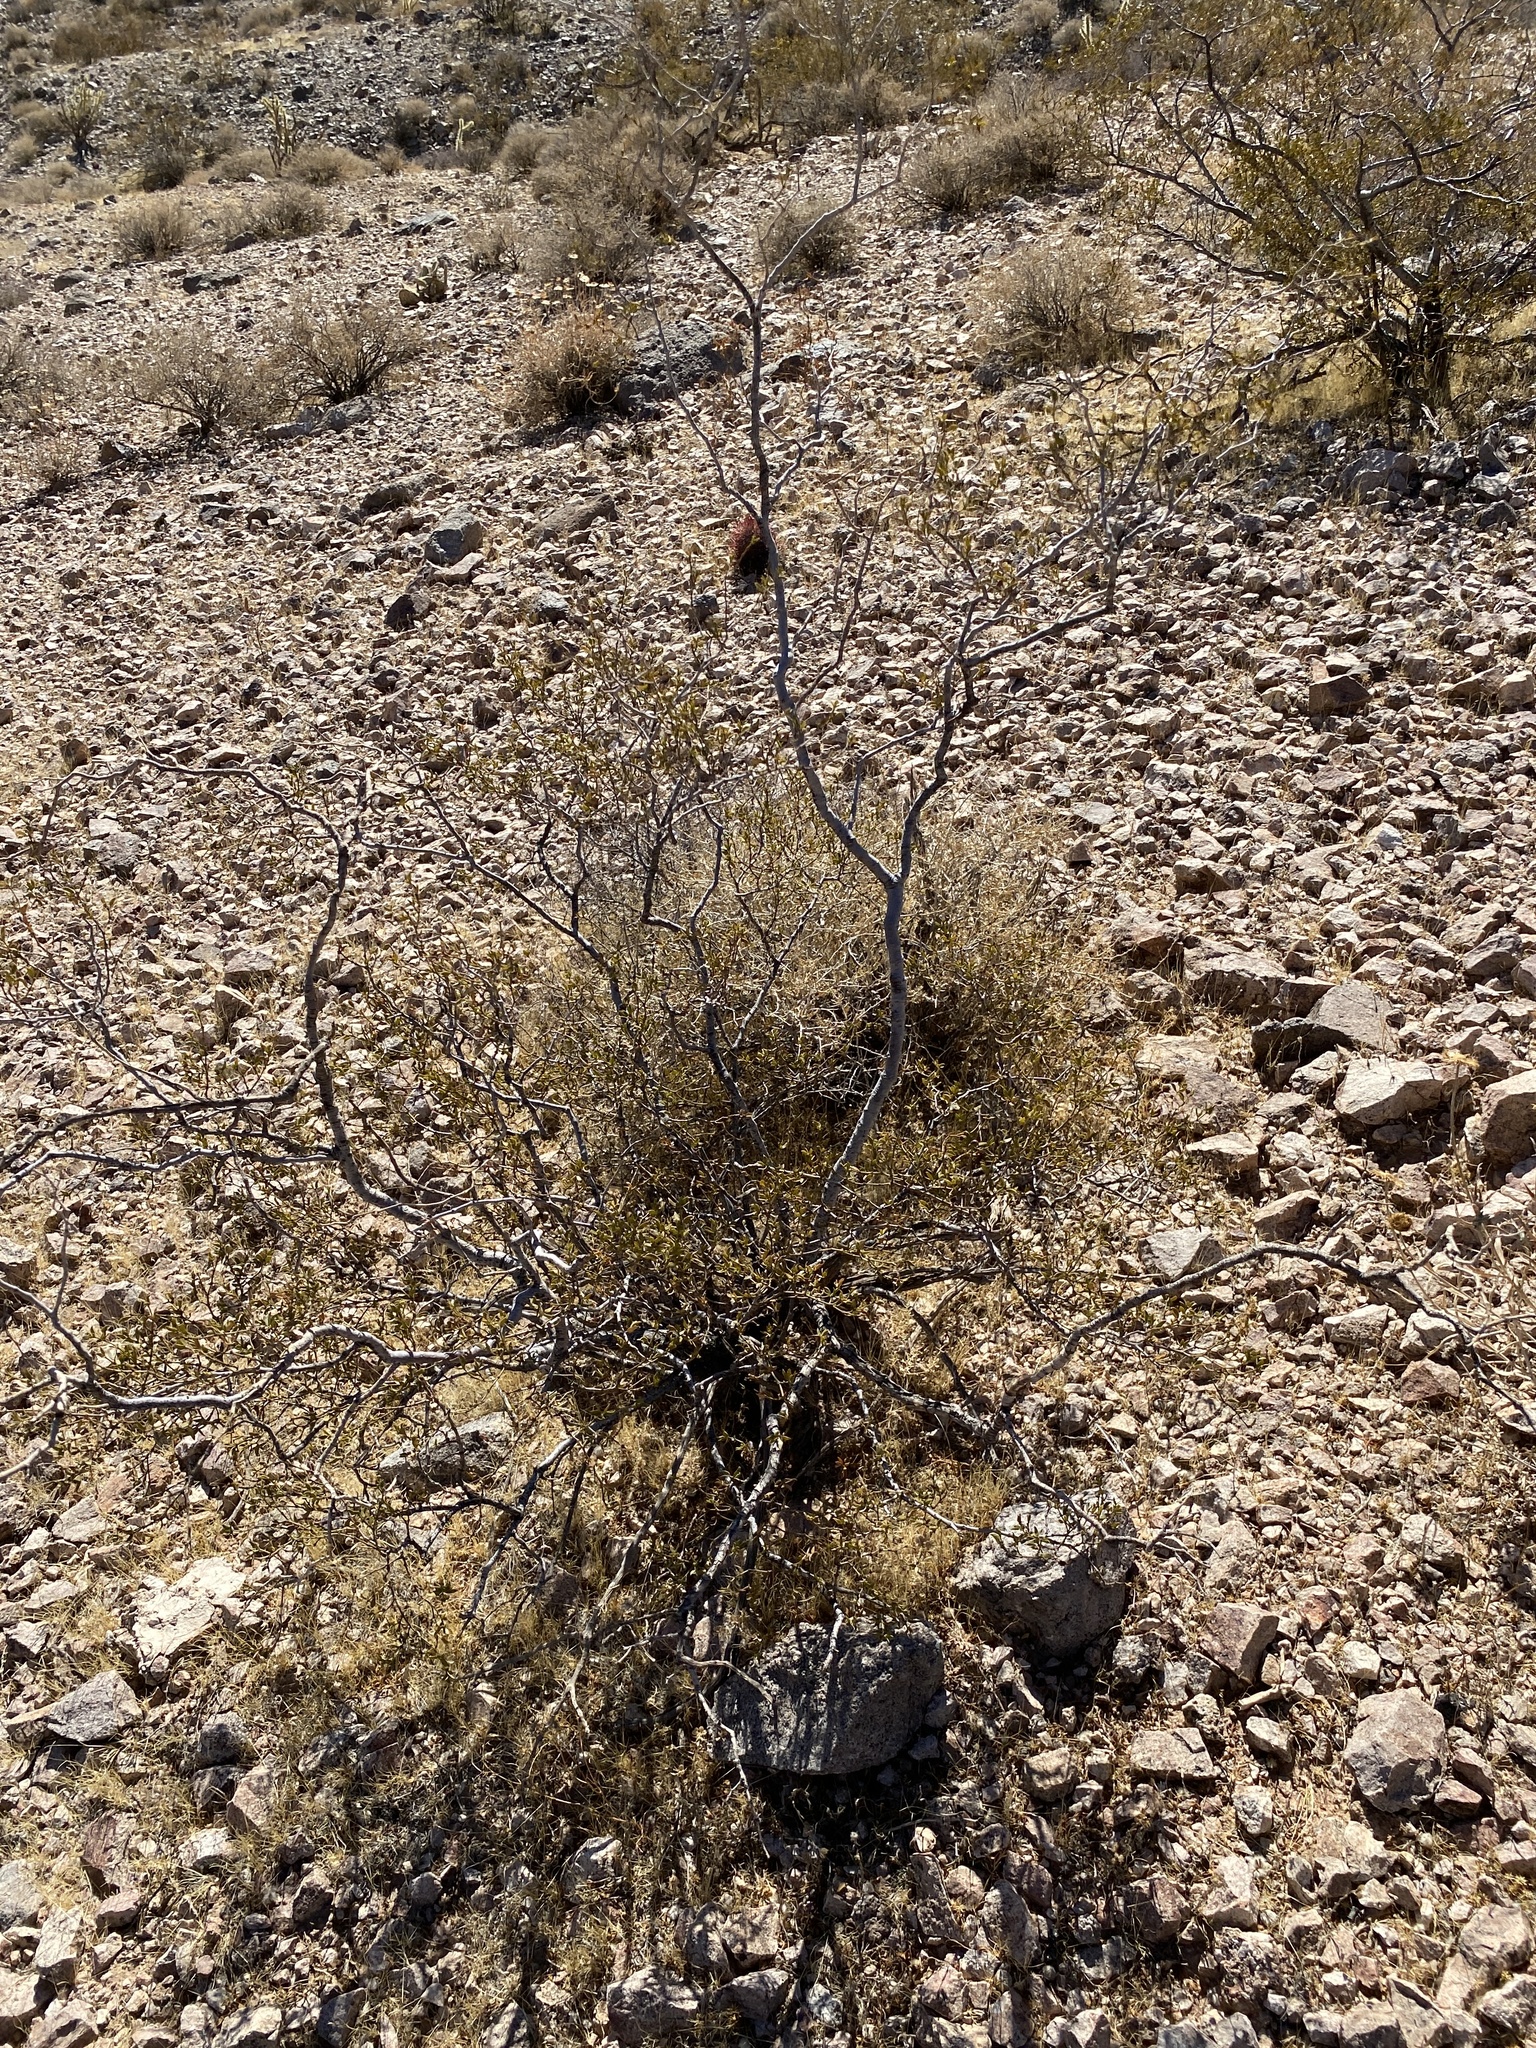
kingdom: Plantae
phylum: Tracheophyta
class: Magnoliopsida
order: Zygophyllales
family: Zygophyllaceae
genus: Larrea
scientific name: Larrea tridentata
